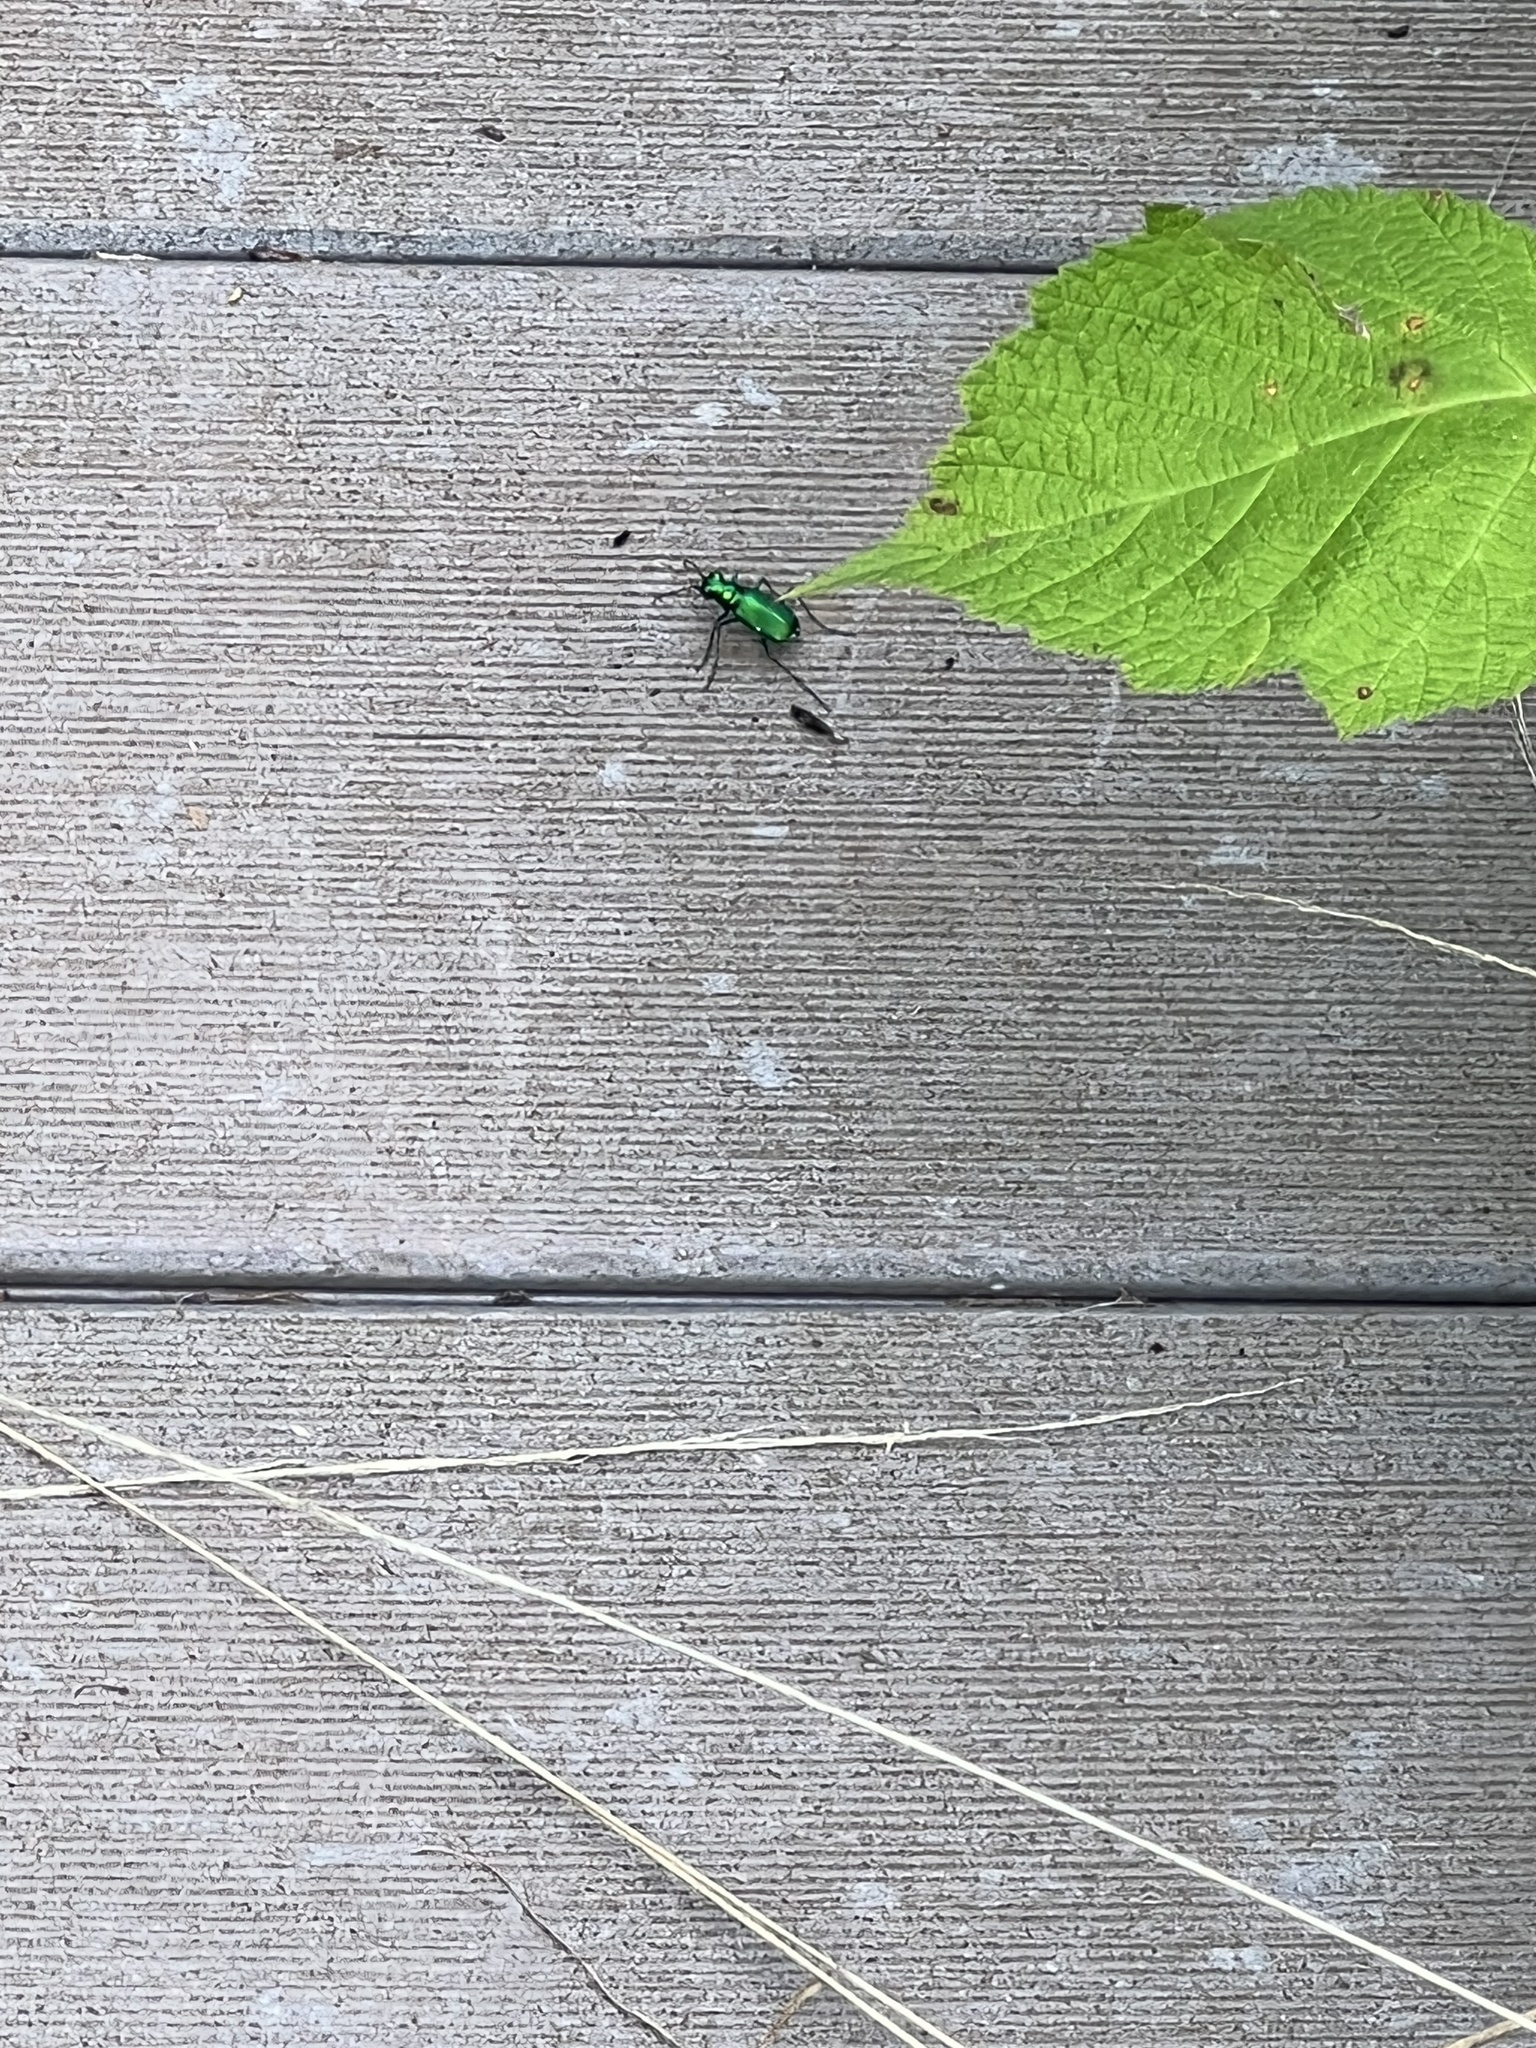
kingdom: Animalia
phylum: Arthropoda
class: Insecta
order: Coleoptera
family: Carabidae
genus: Cicindela
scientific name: Cicindela sexguttata
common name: Six-spotted tiger beetle
